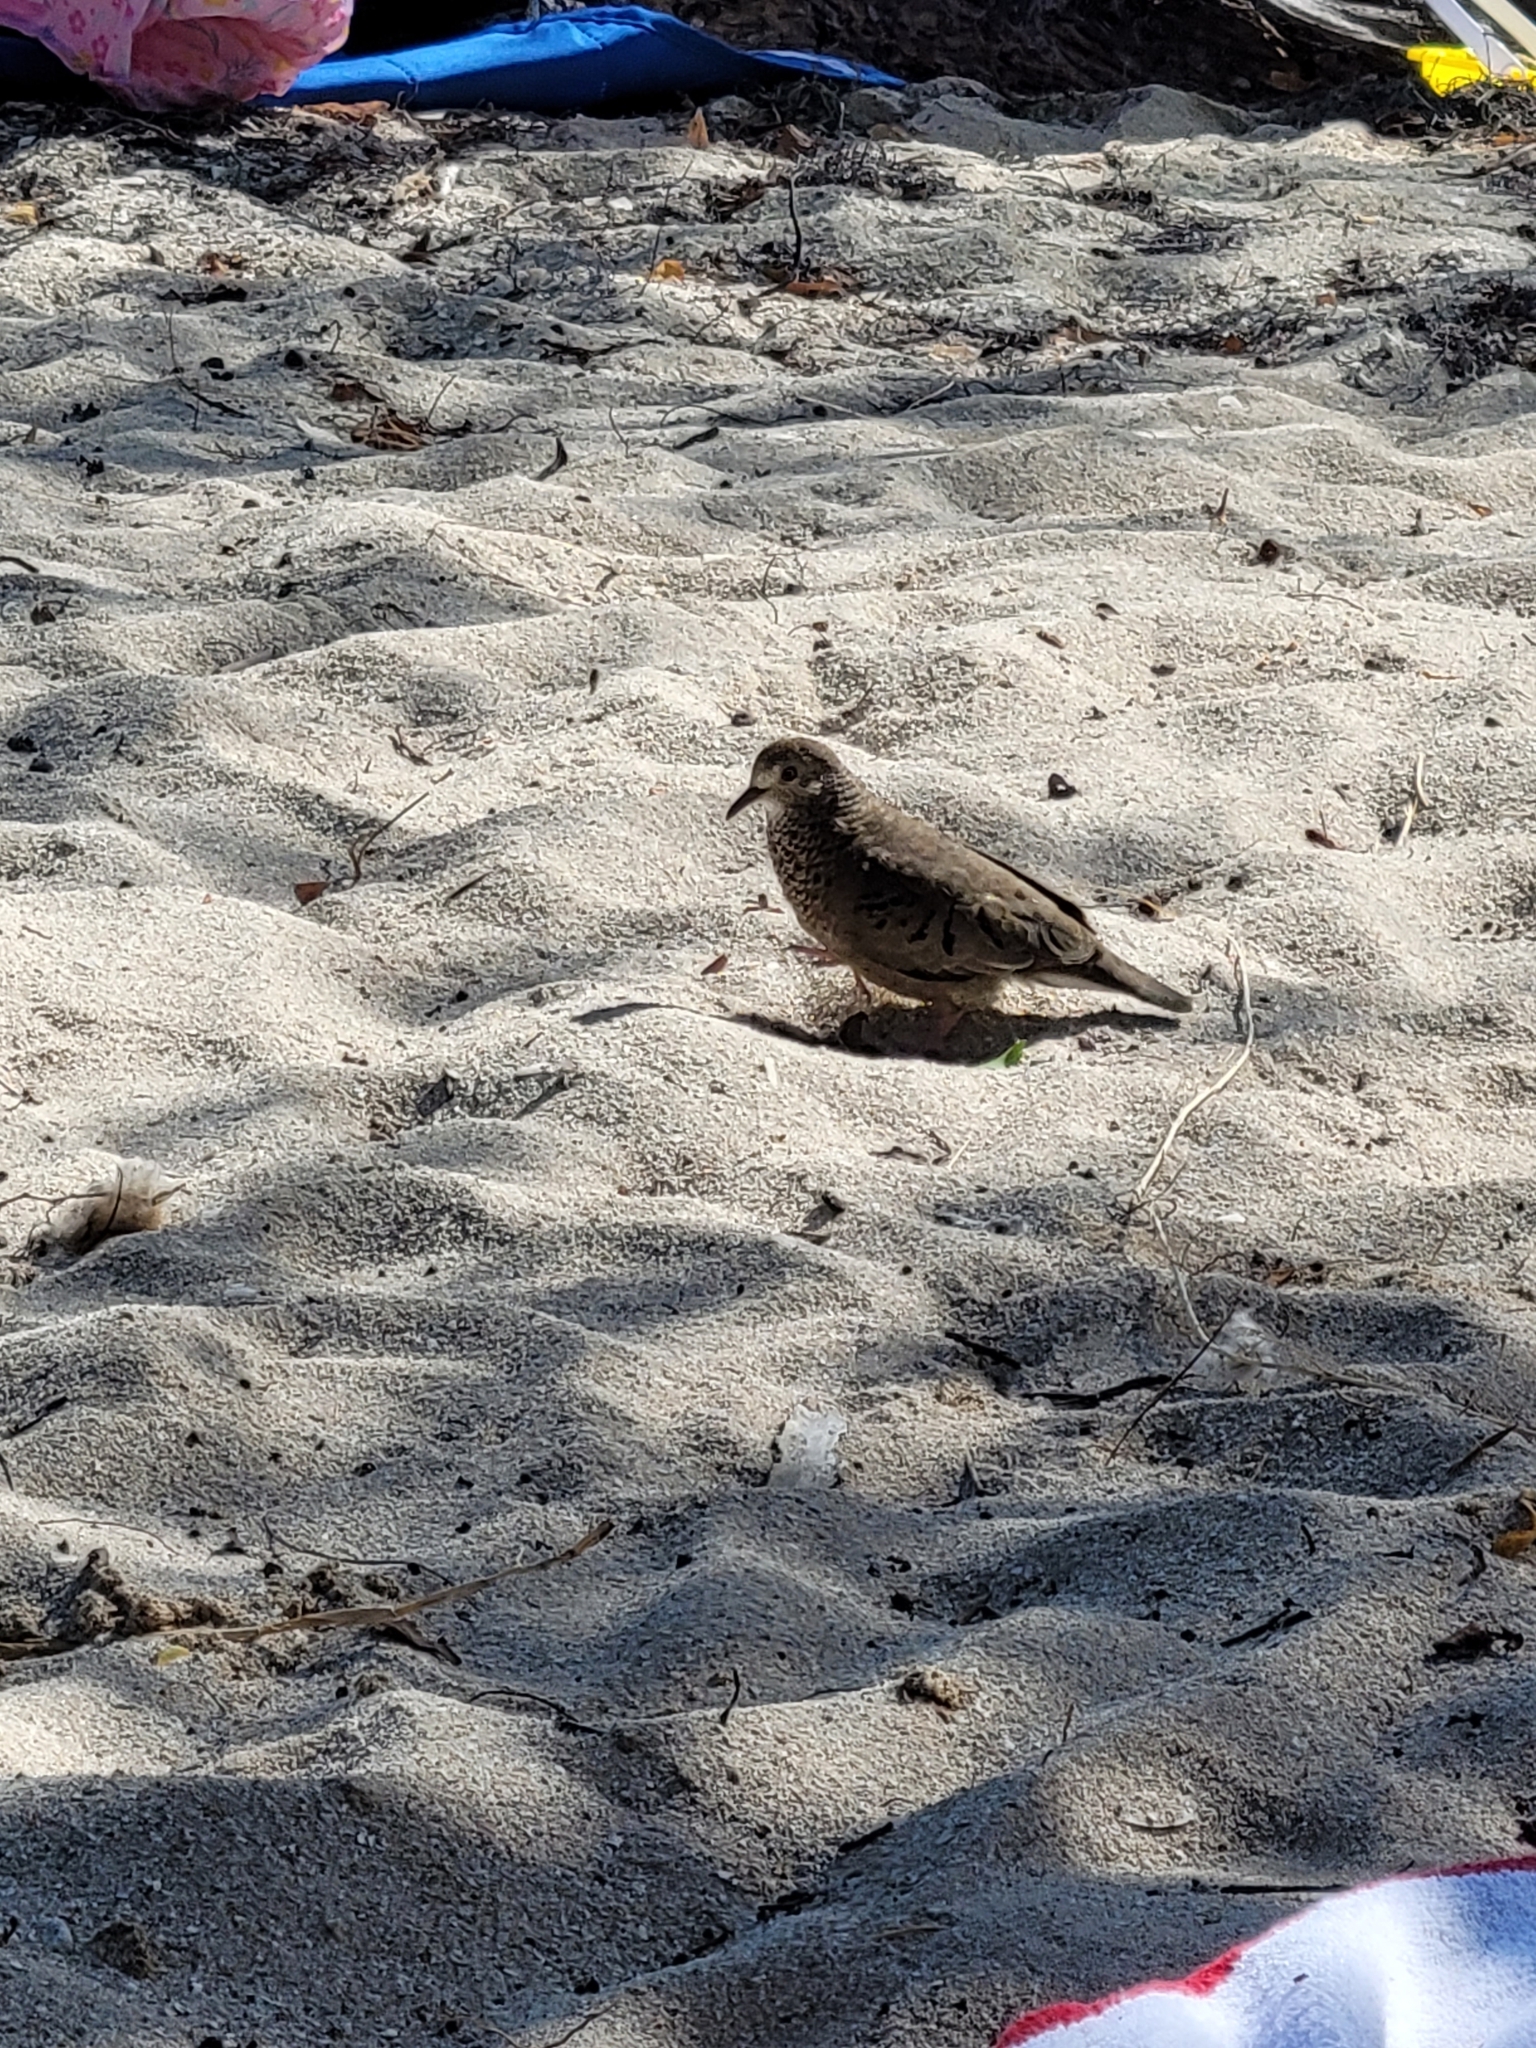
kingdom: Animalia
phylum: Chordata
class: Aves
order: Columbiformes
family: Columbidae
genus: Columbina
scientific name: Columbina passerina
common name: Common ground-dove
